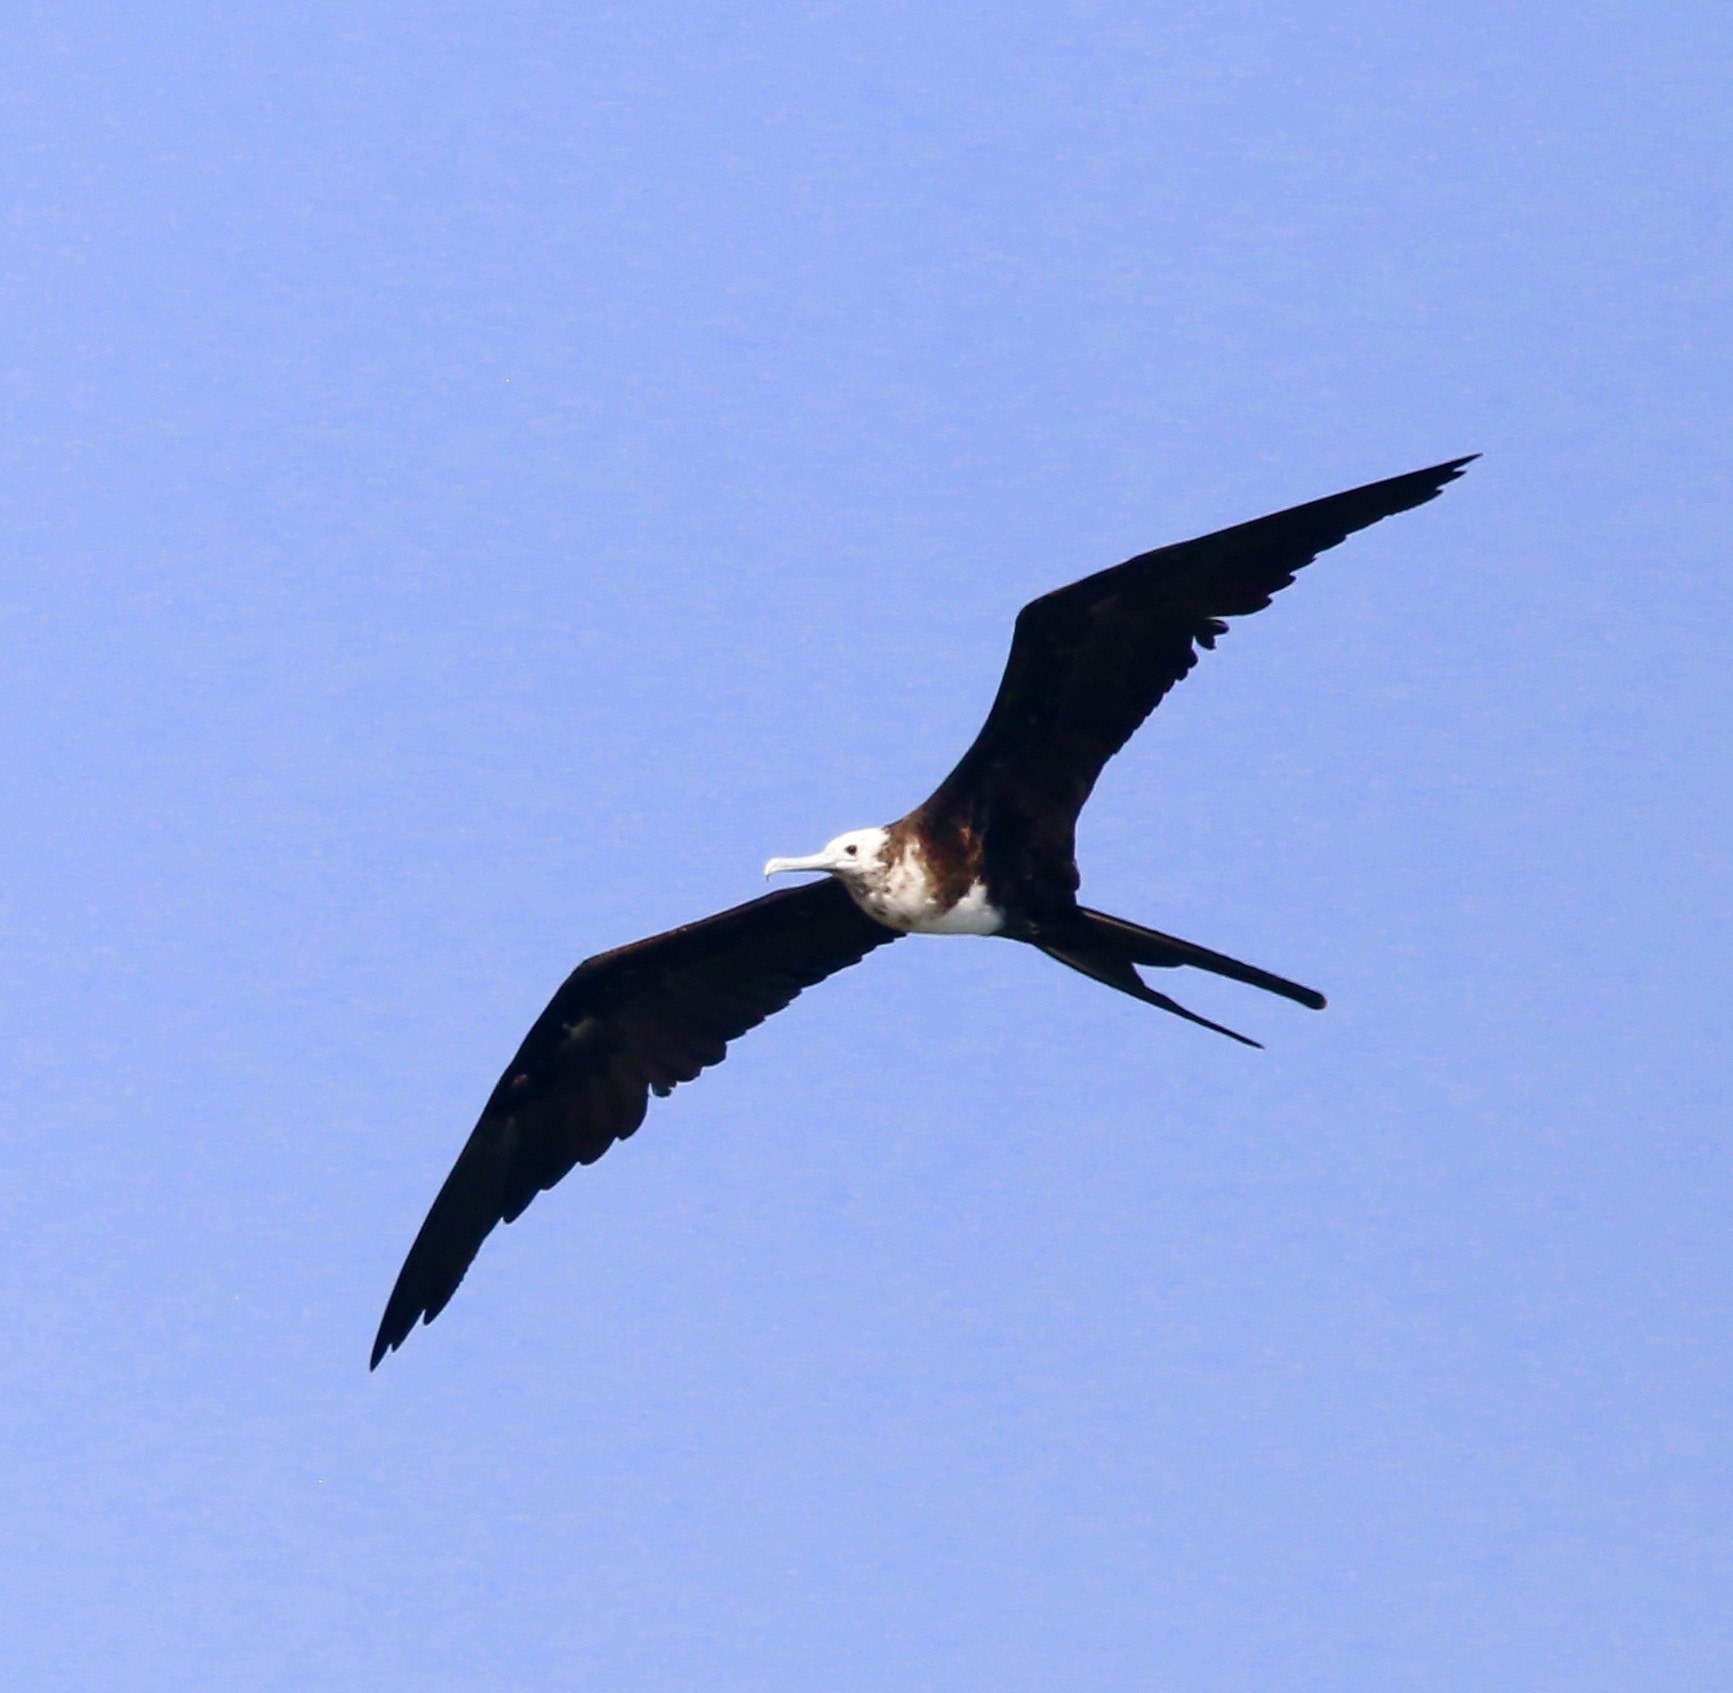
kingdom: Animalia
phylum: Chordata
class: Aves
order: Suliformes
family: Fregatidae
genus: Fregata
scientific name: Fregata magnificens
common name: Magnificent frigatebird
